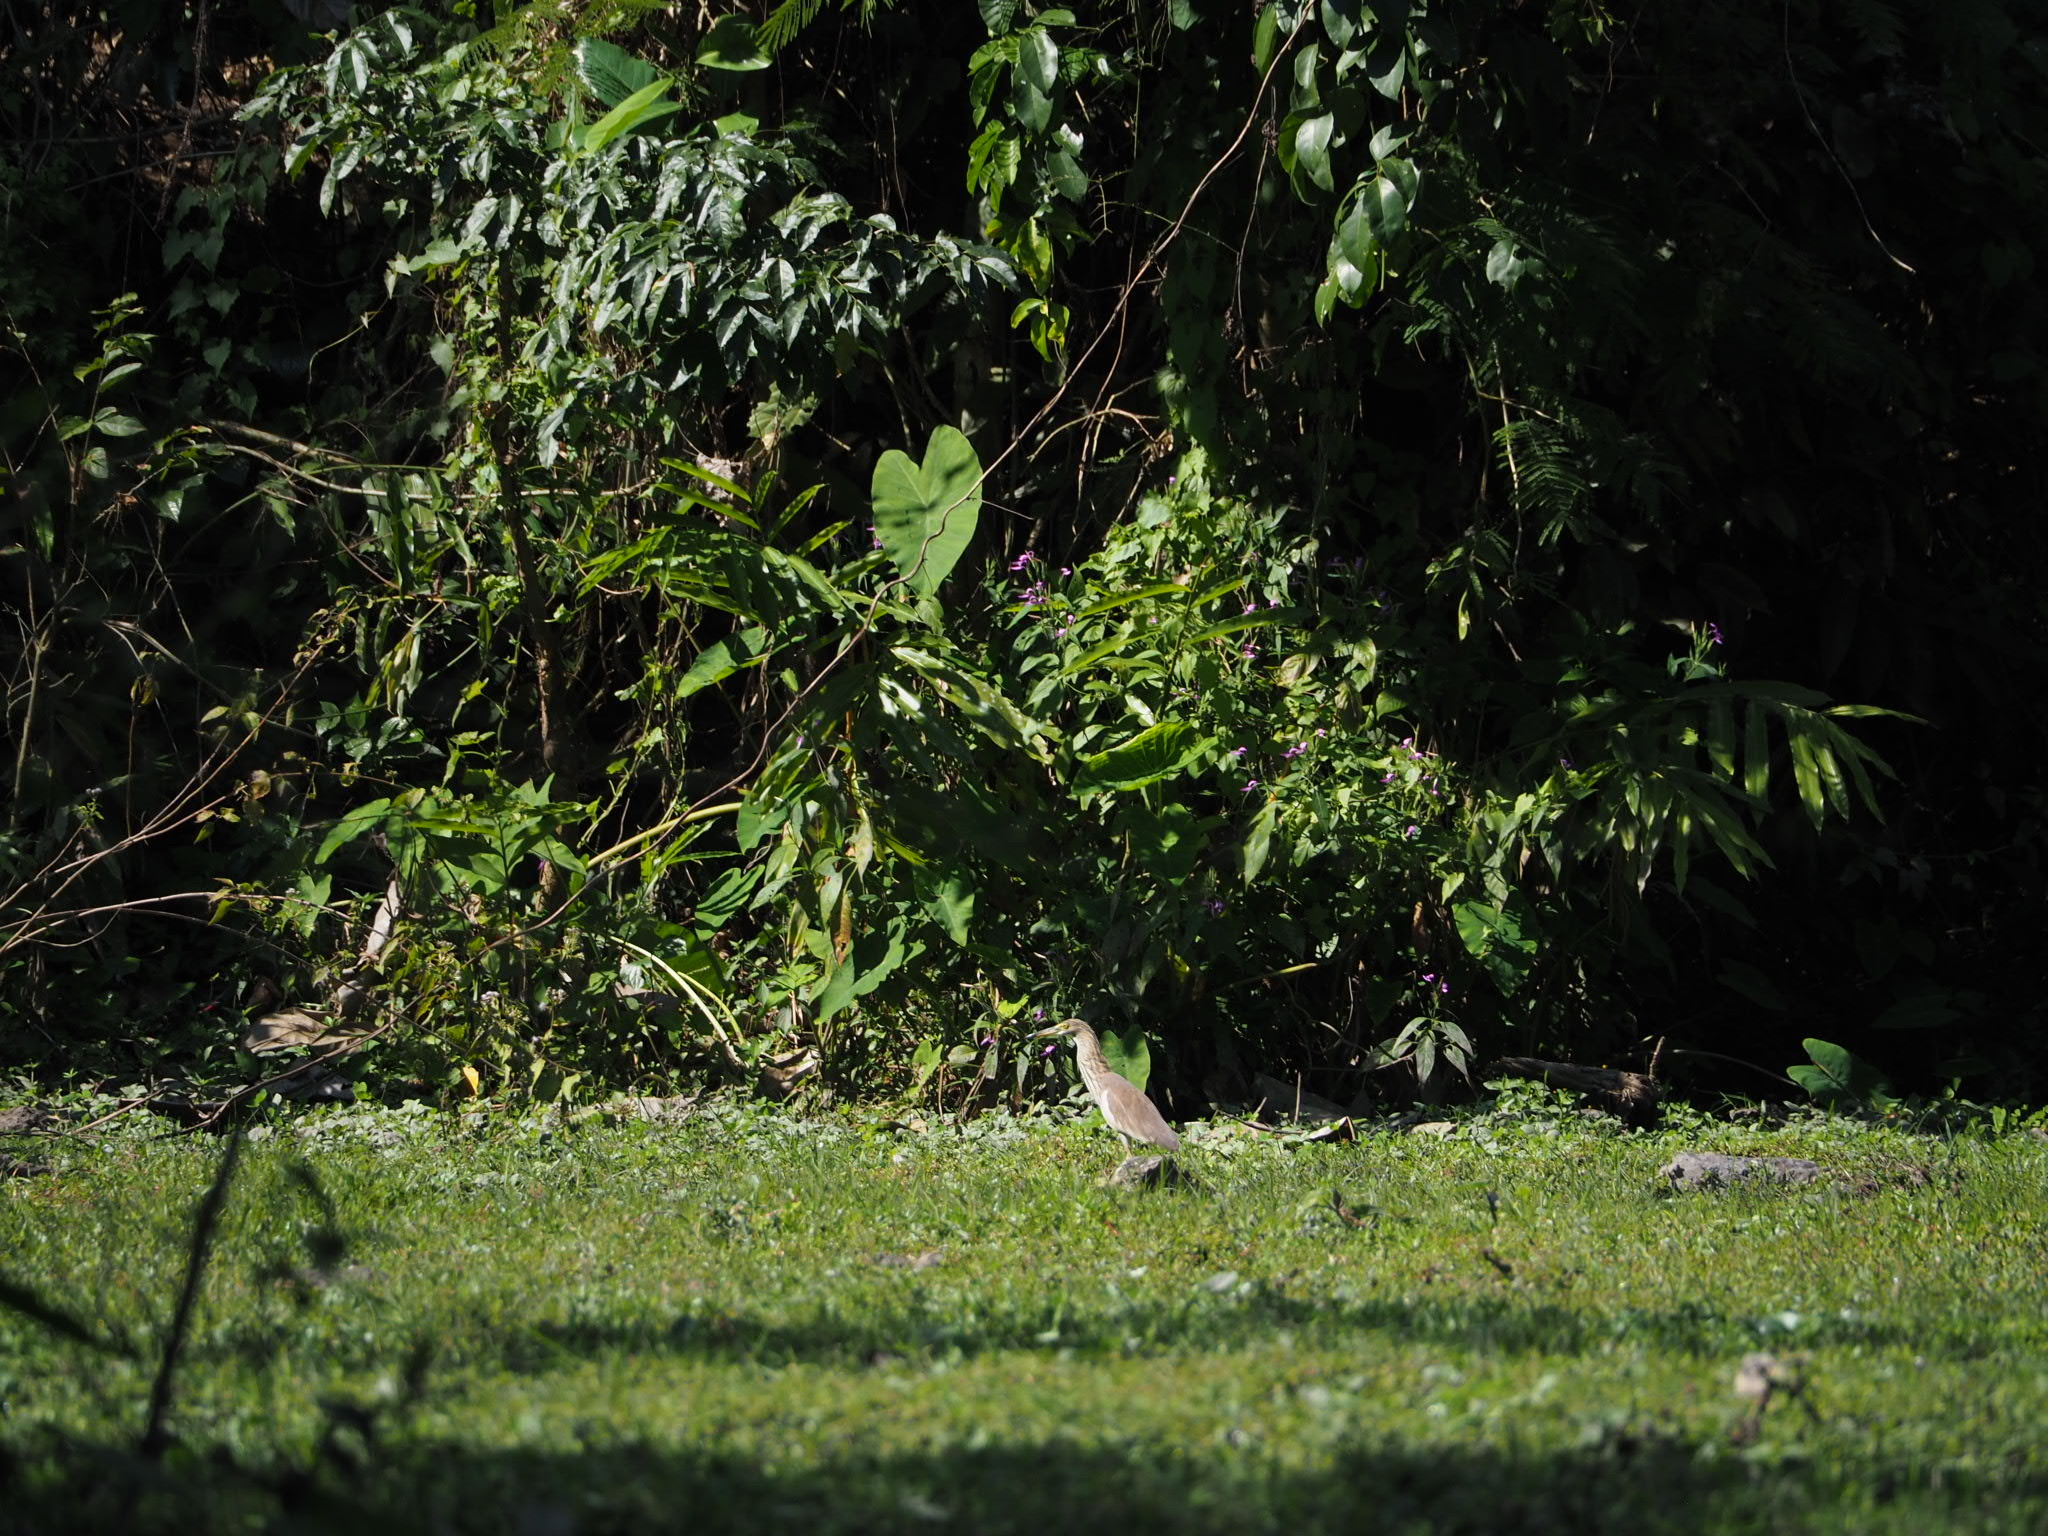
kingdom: Animalia
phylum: Chordata
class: Aves
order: Pelecaniformes
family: Ardeidae
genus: Ardeola
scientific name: Ardeola bacchus
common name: Chinese pond heron
